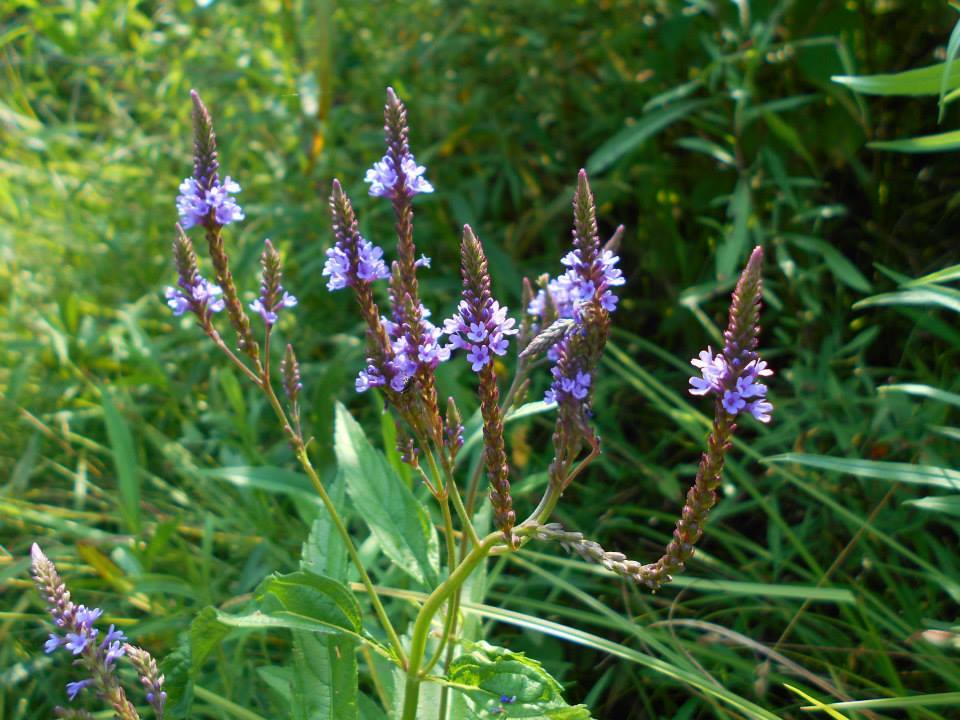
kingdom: Plantae
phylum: Tracheophyta
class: Magnoliopsida
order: Lamiales
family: Verbenaceae
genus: Verbena
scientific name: Verbena hastata
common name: American blue vervain
